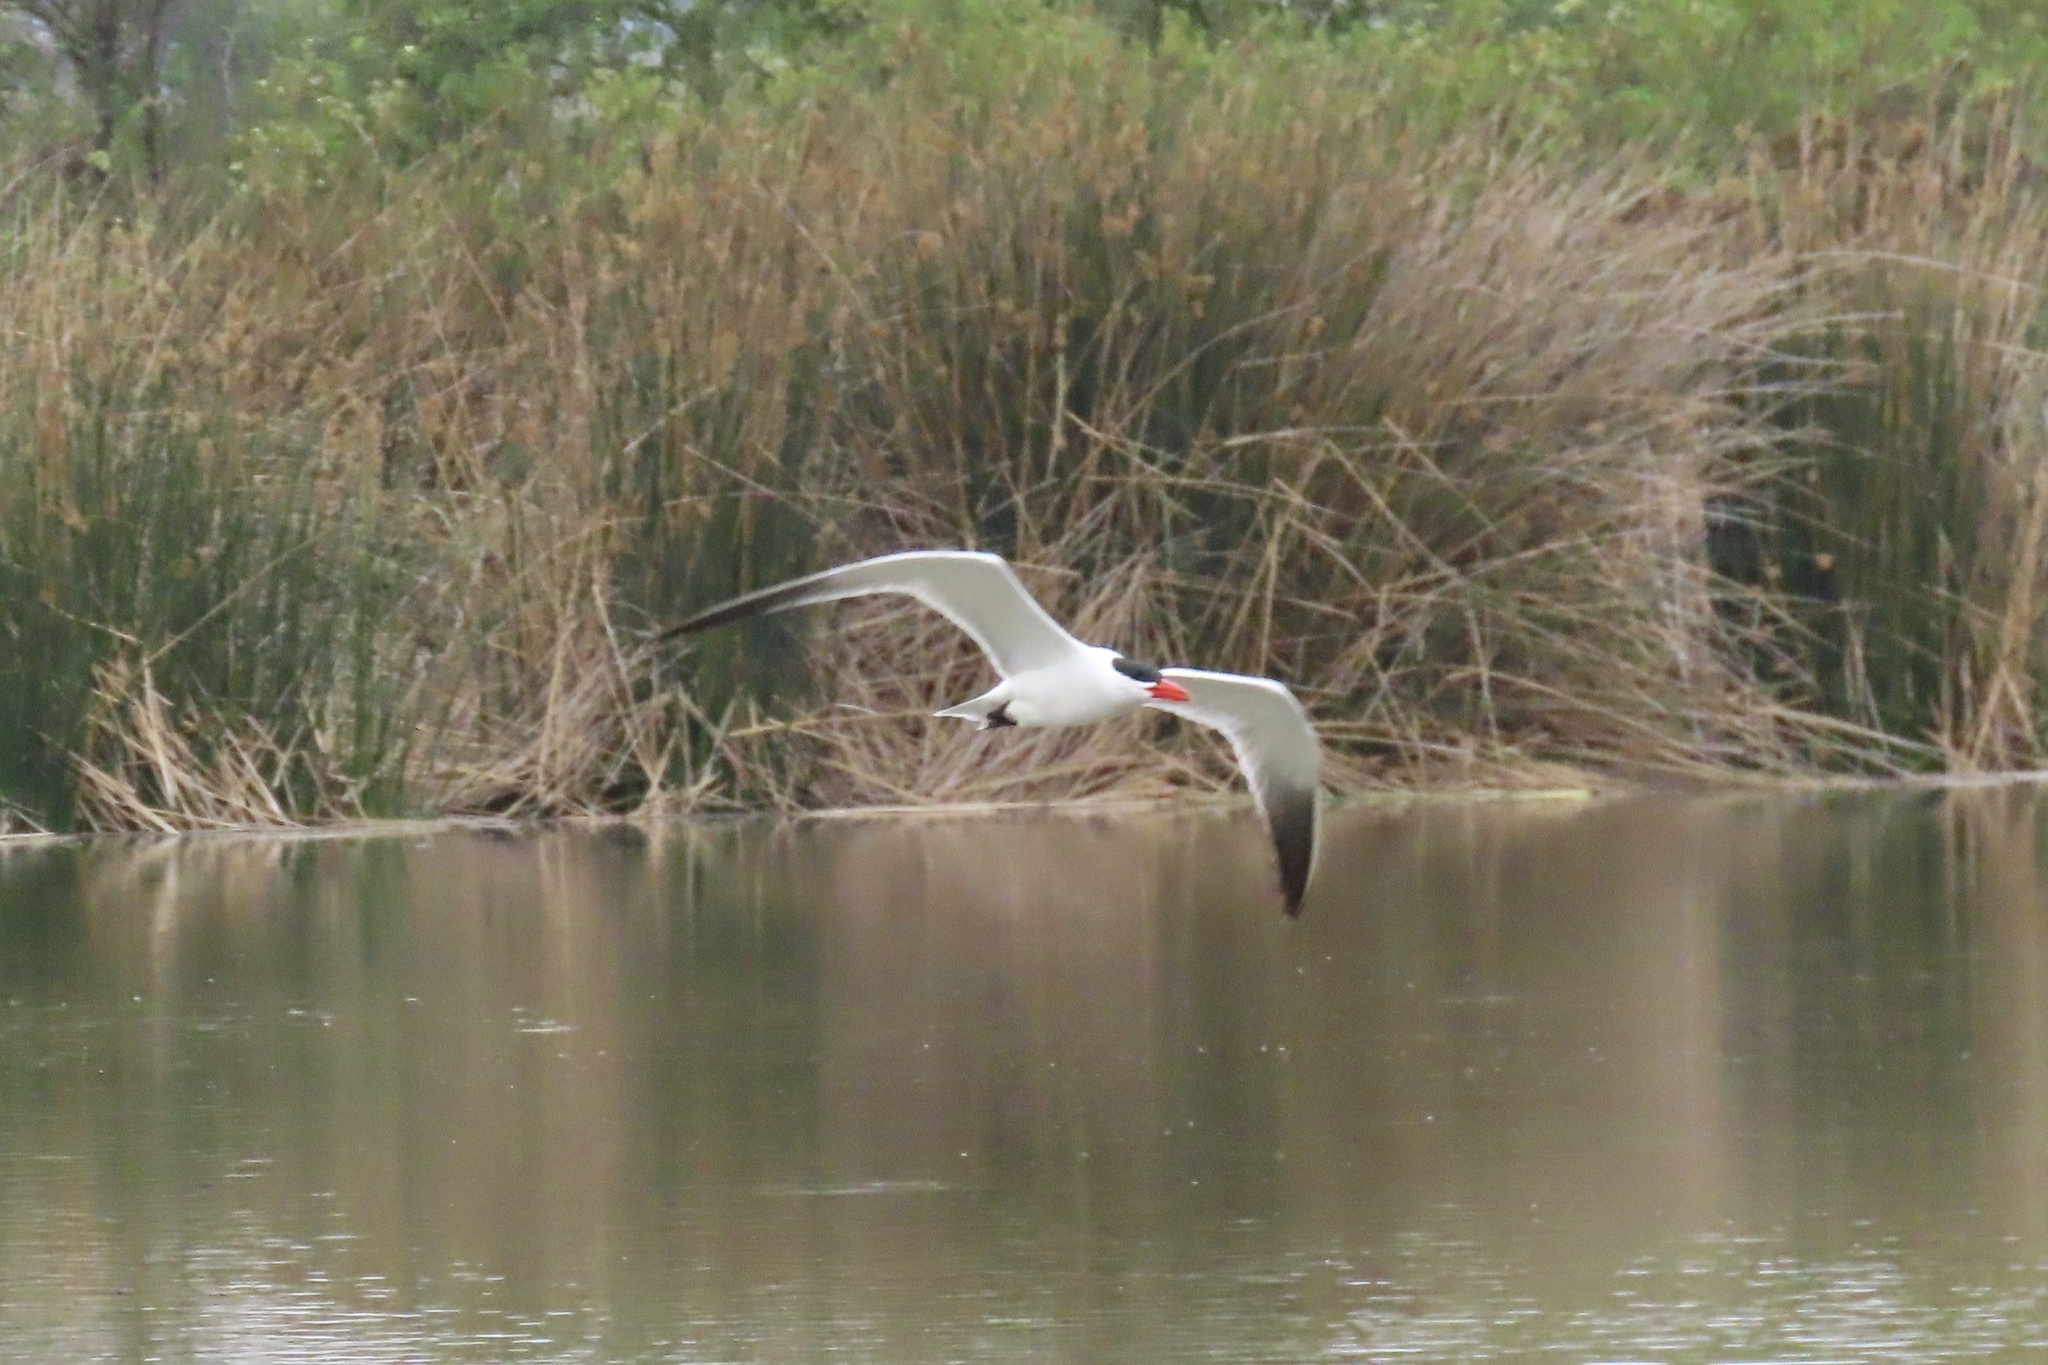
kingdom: Animalia
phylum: Chordata
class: Aves
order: Charadriiformes
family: Laridae
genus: Hydroprogne
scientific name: Hydroprogne caspia
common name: Caspian tern
